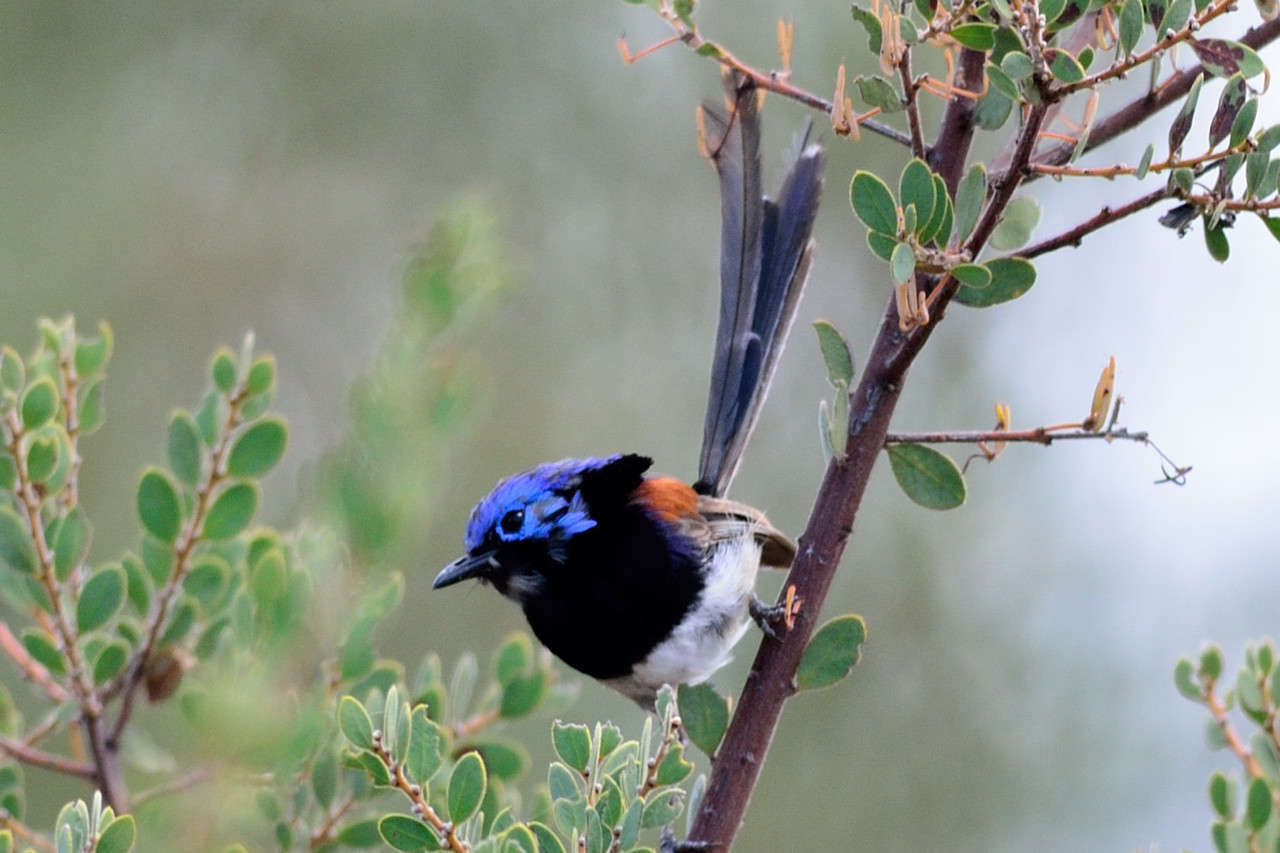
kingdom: Animalia
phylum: Chordata
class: Aves
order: Passeriformes
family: Maluridae
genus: Malurus
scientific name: Malurus assimilis
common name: Purple-backed fairywren
